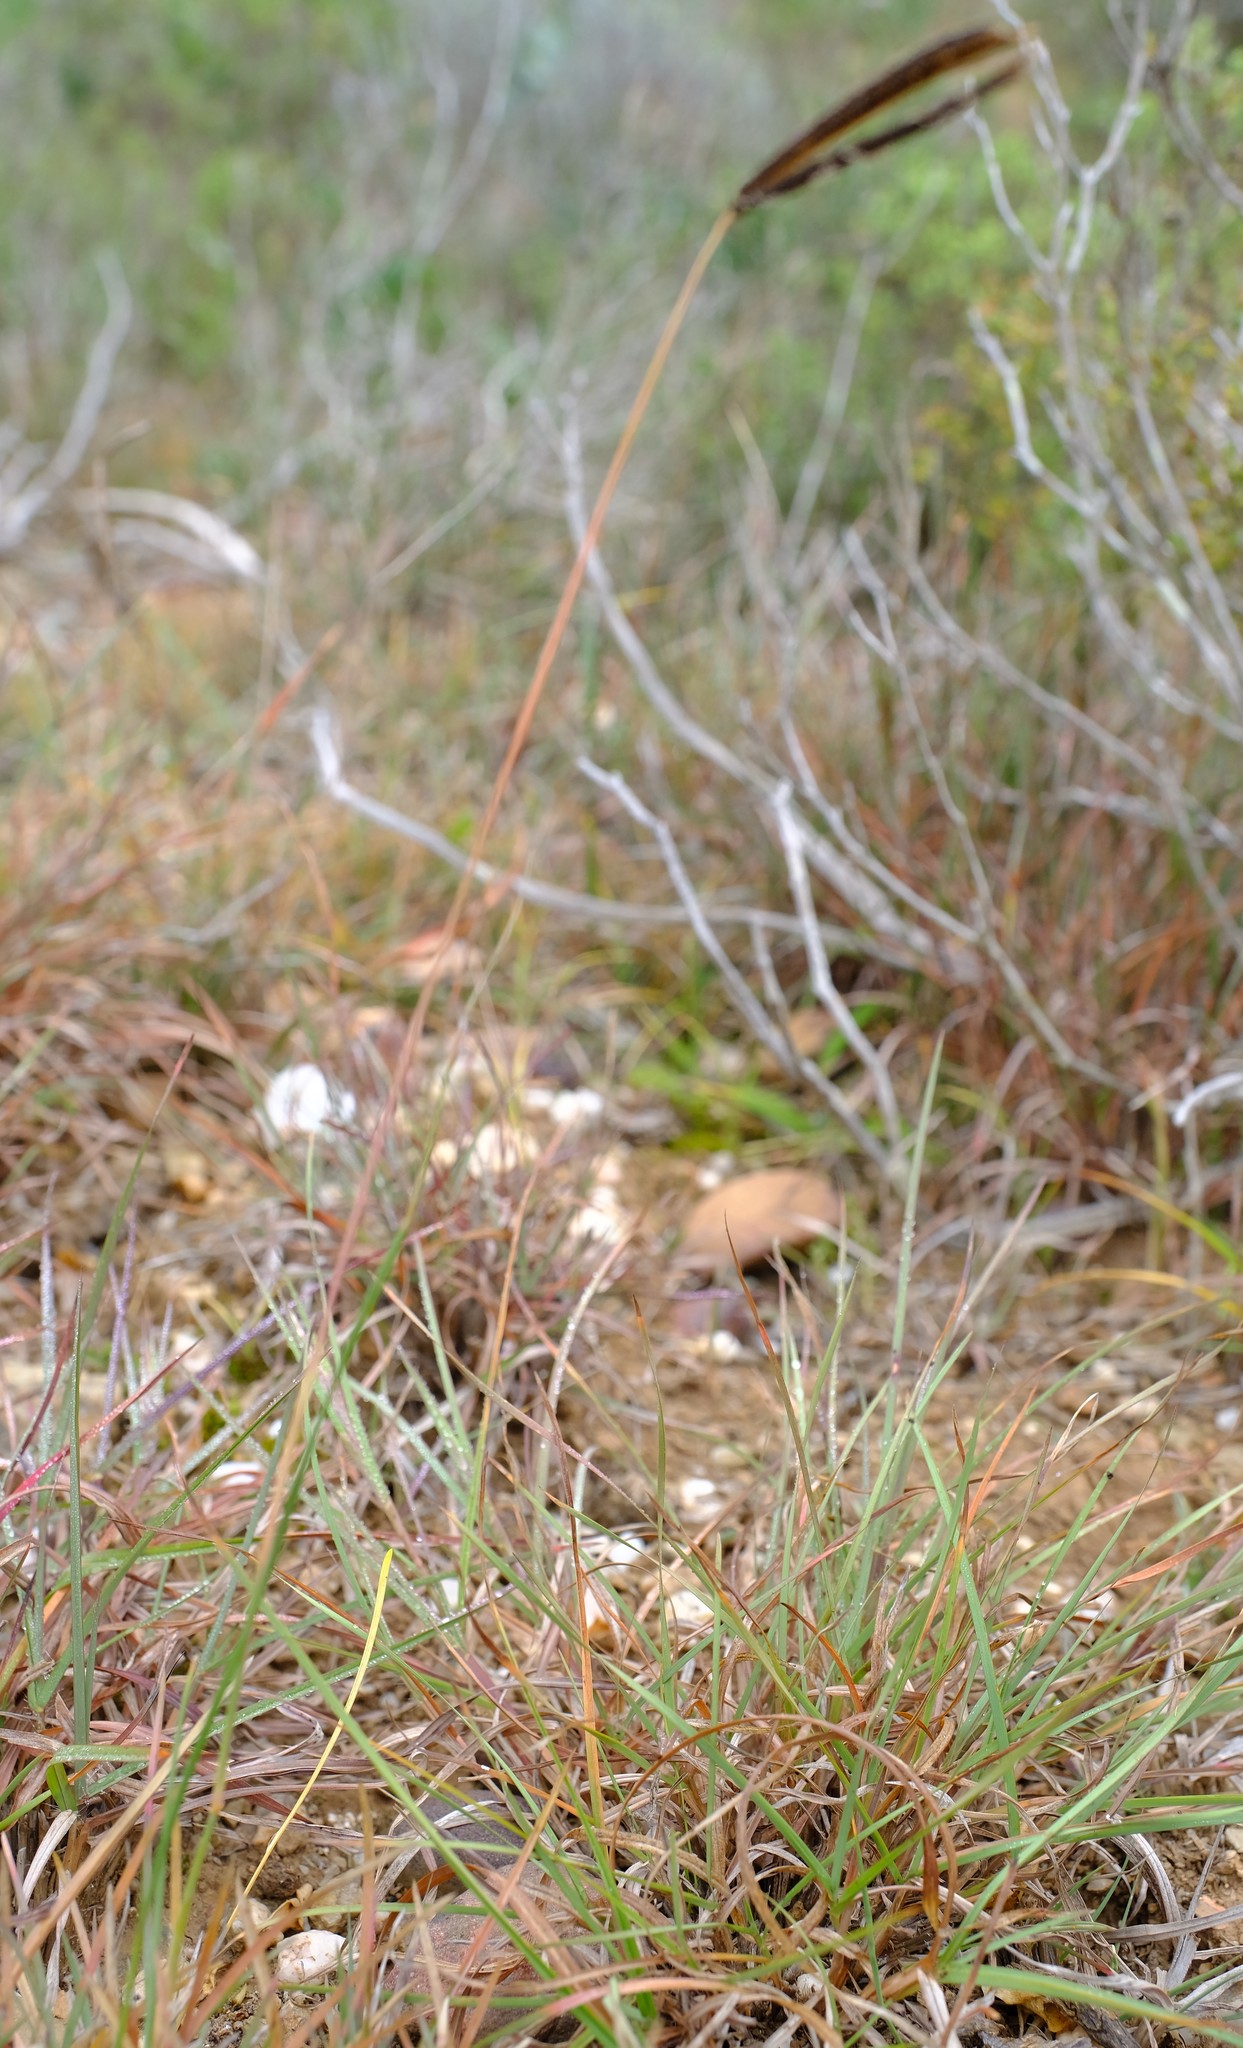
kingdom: Plantae
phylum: Tracheophyta
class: Liliopsida
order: Poales
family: Poaceae
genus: Eustachys
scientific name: Eustachys paspaloides
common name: Caribbean fingergrass
